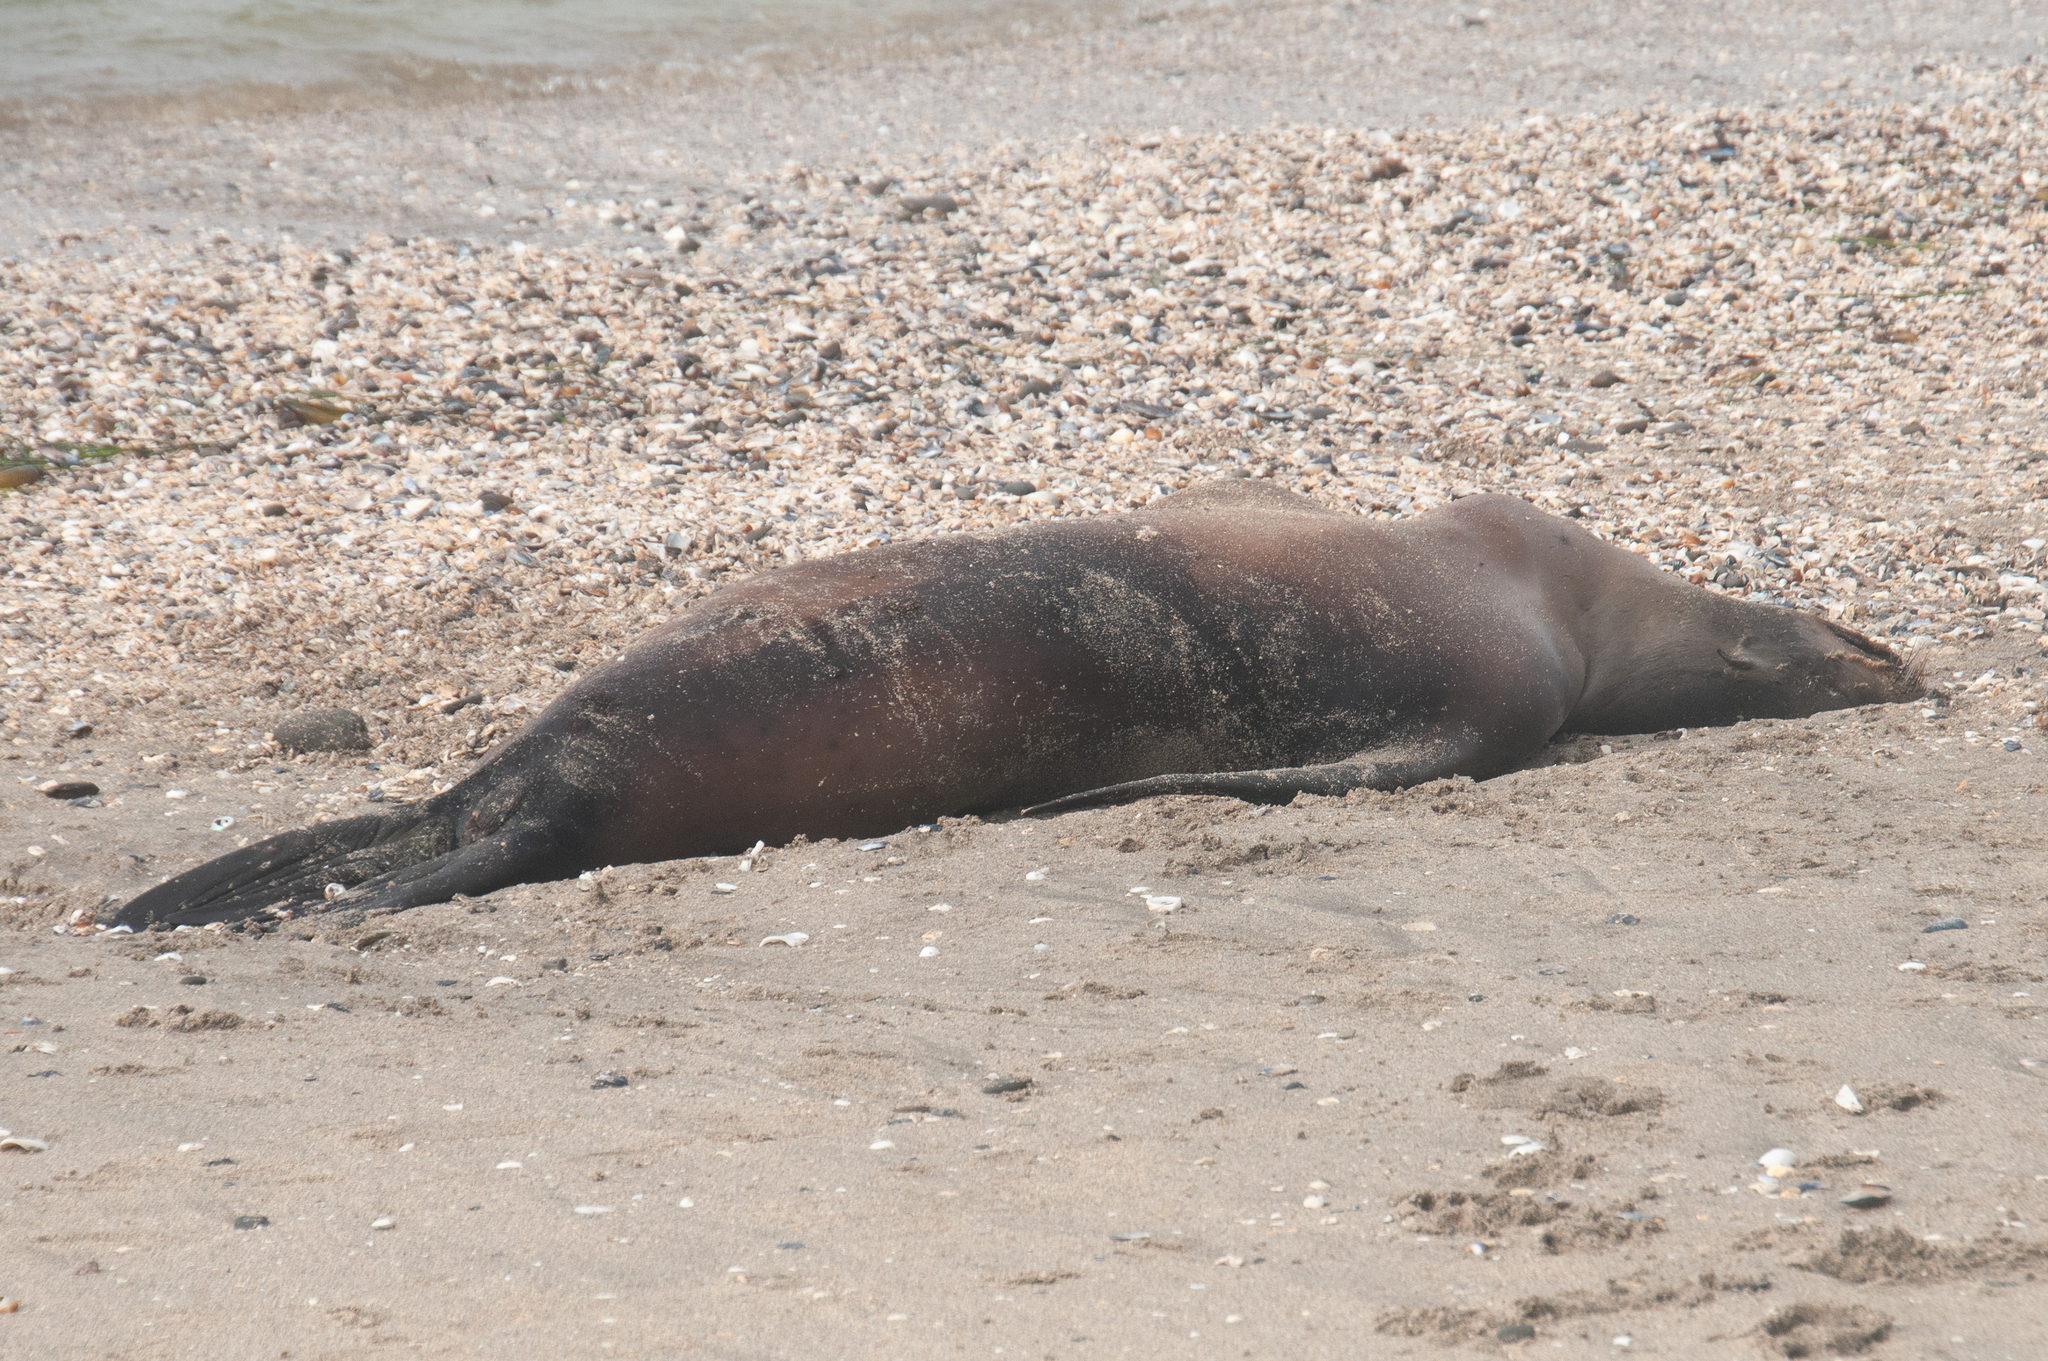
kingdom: Animalia
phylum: Chordata
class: Mammalia
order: Carnivora
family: Otariidae
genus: Zalophus
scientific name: Zalophus californianus
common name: California sea lion
